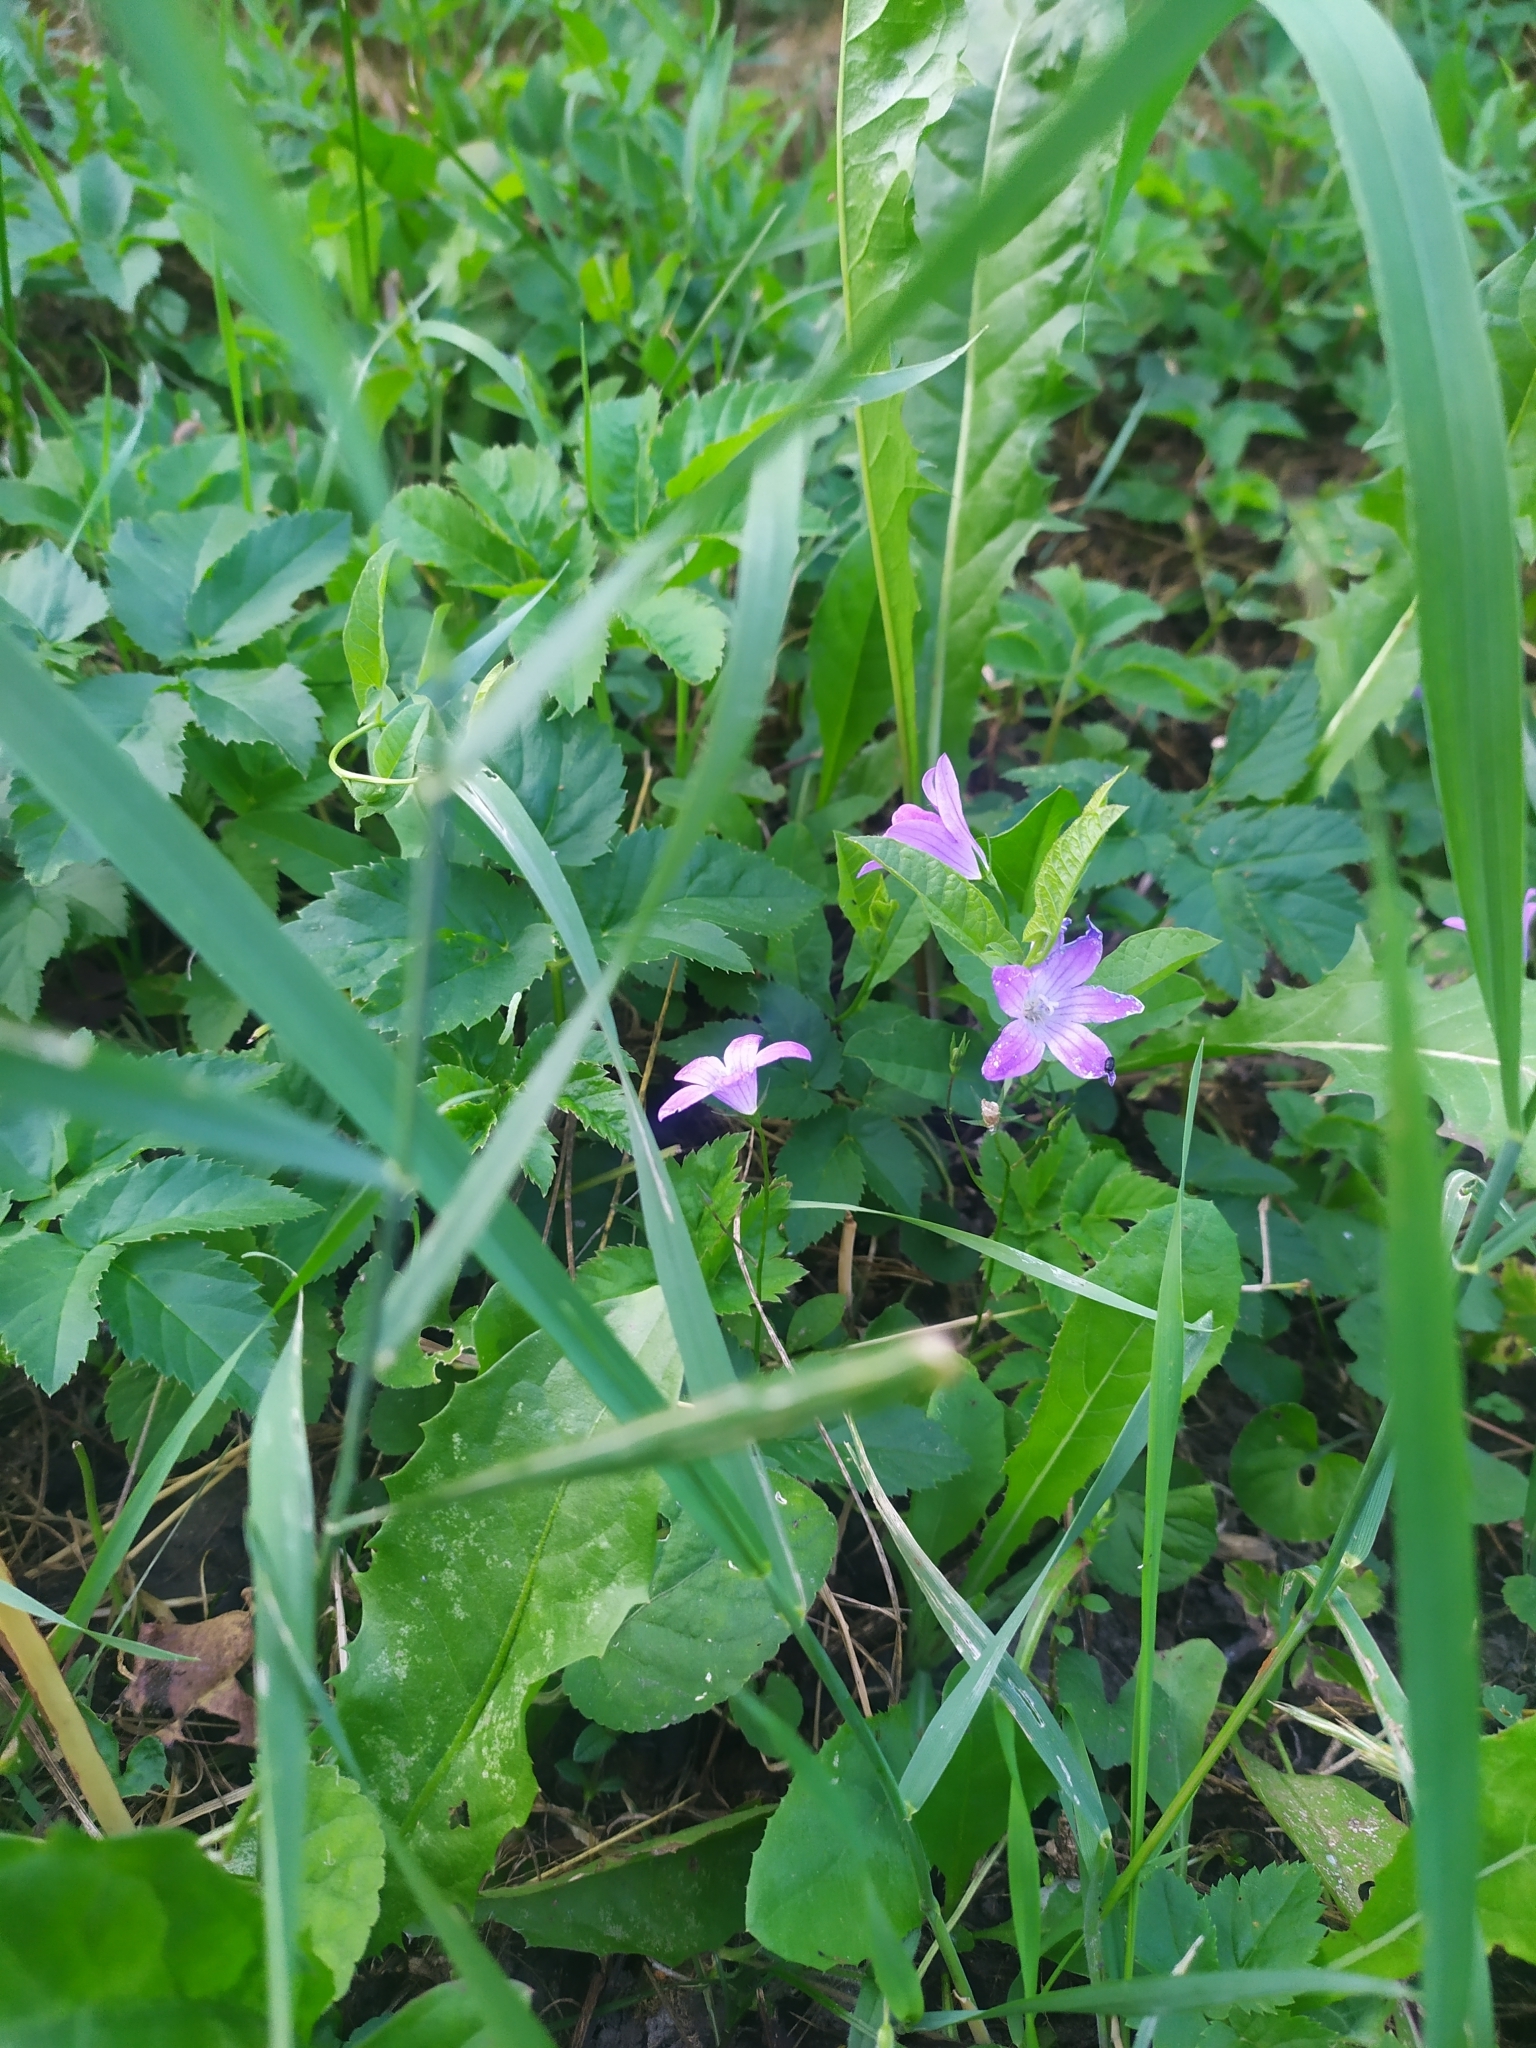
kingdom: Plantae
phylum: Tracheophyta
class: Magnoliopsida
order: Asterales
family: Campanulaceae
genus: Campanula
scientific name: Campanula patula
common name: Spreading bellflower
